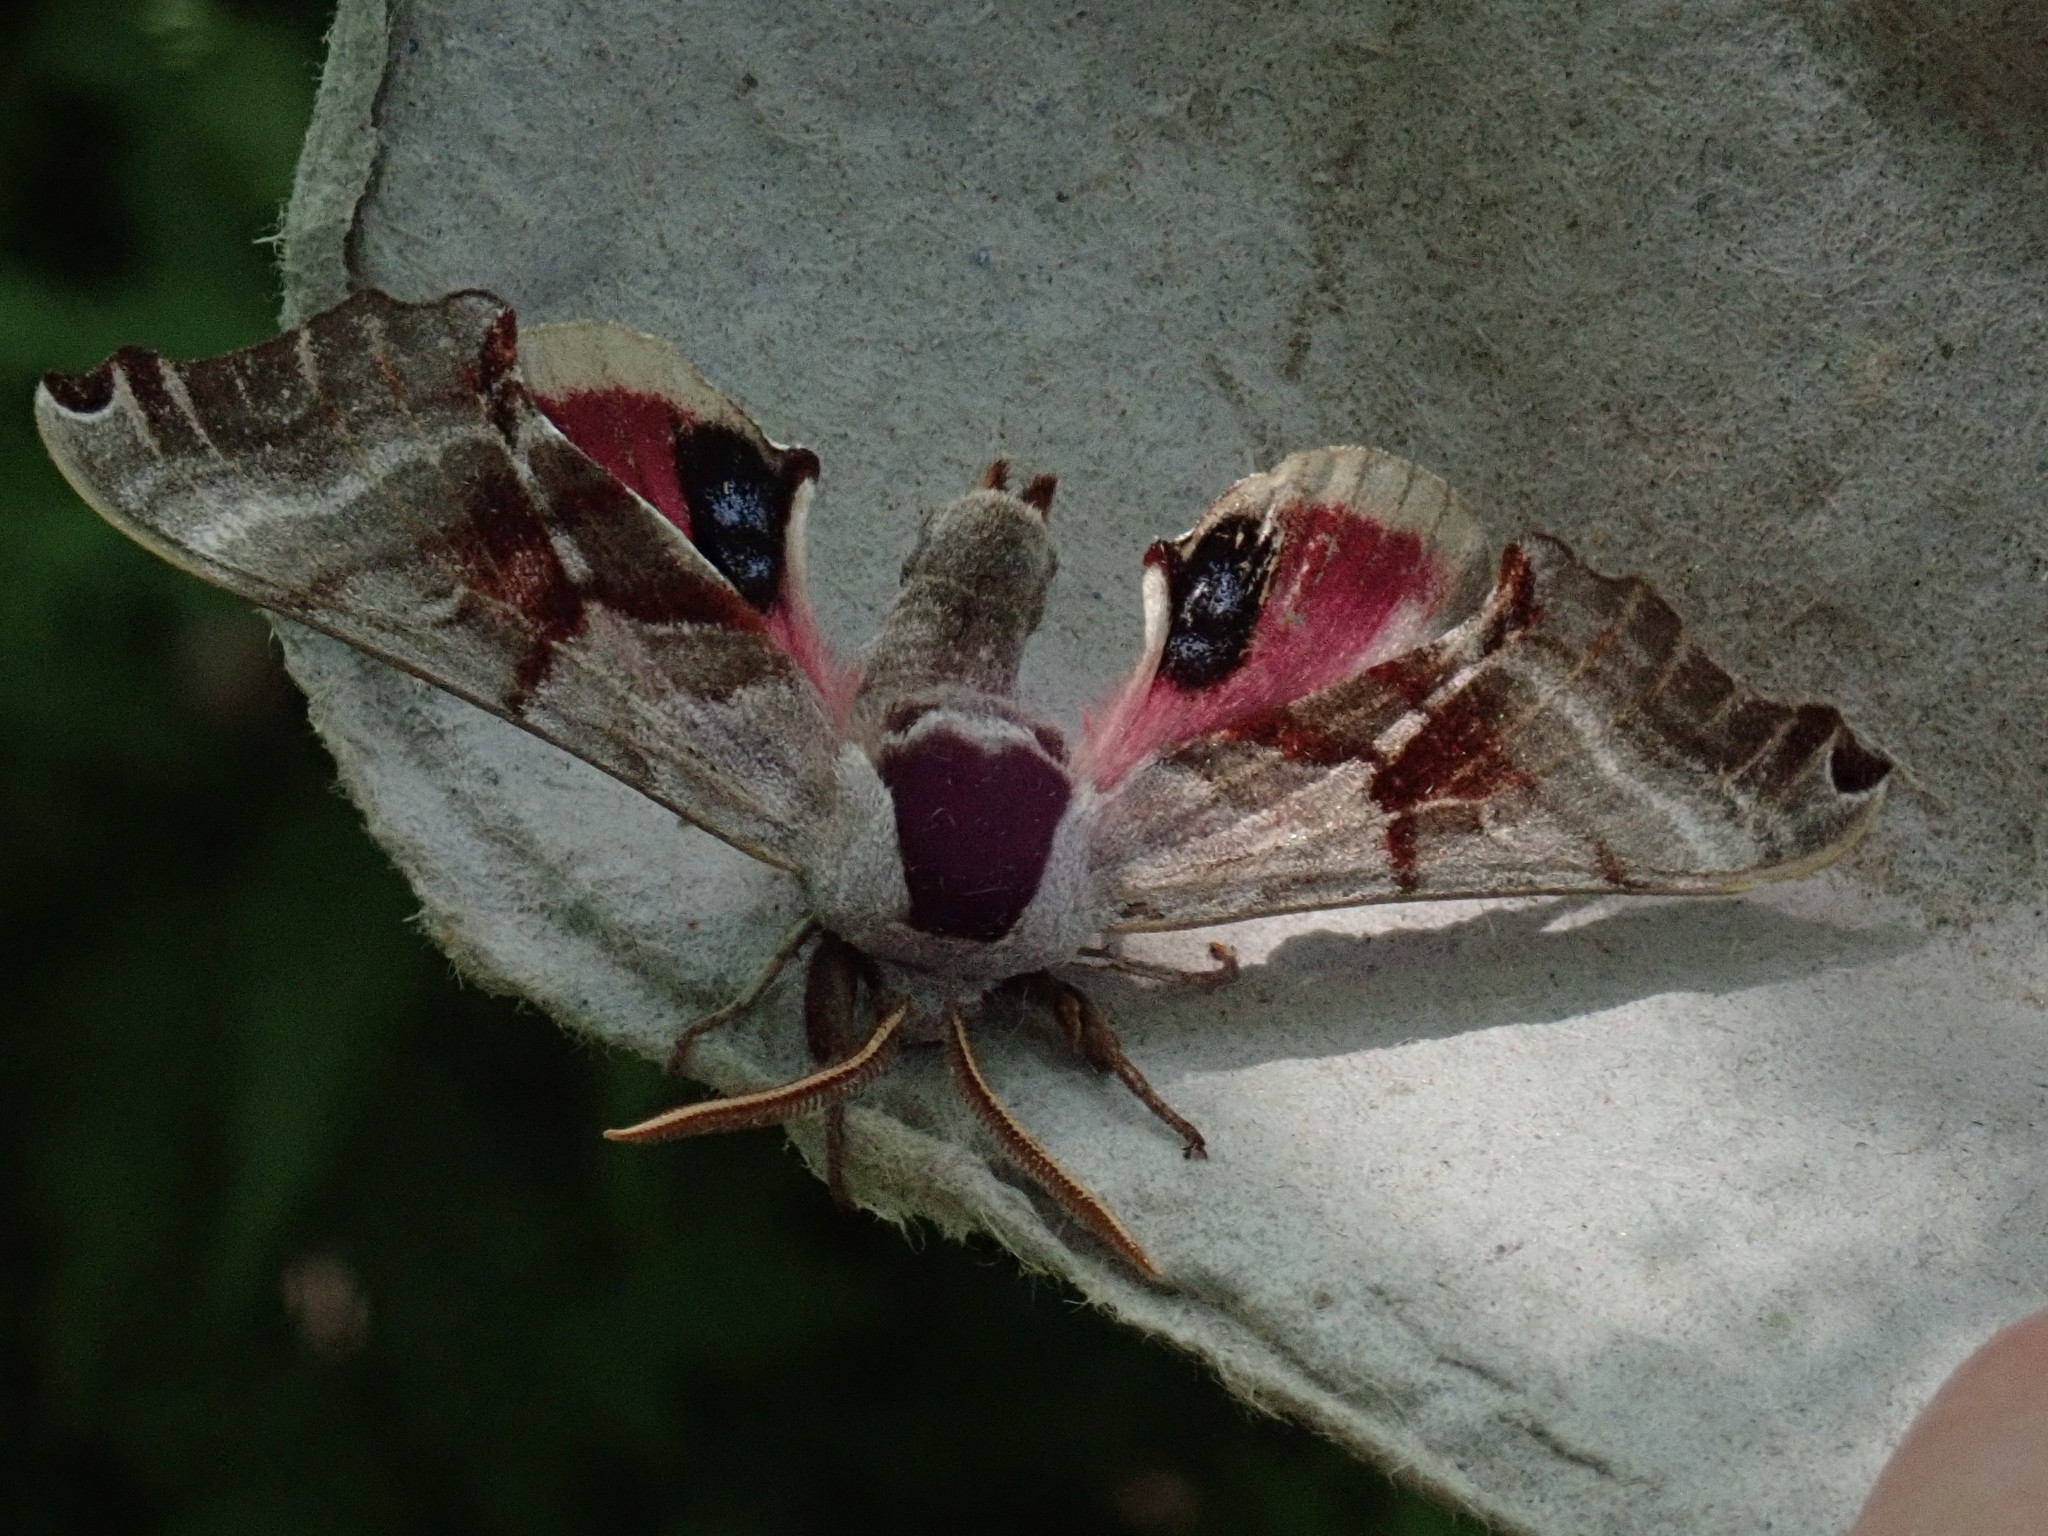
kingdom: Animalia
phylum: Arthropoda
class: Insecta
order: Lepidoptera
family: Sphingidae
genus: Smerinthus
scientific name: Smerinthus jamaicensis
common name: Twin spotted sphinx
